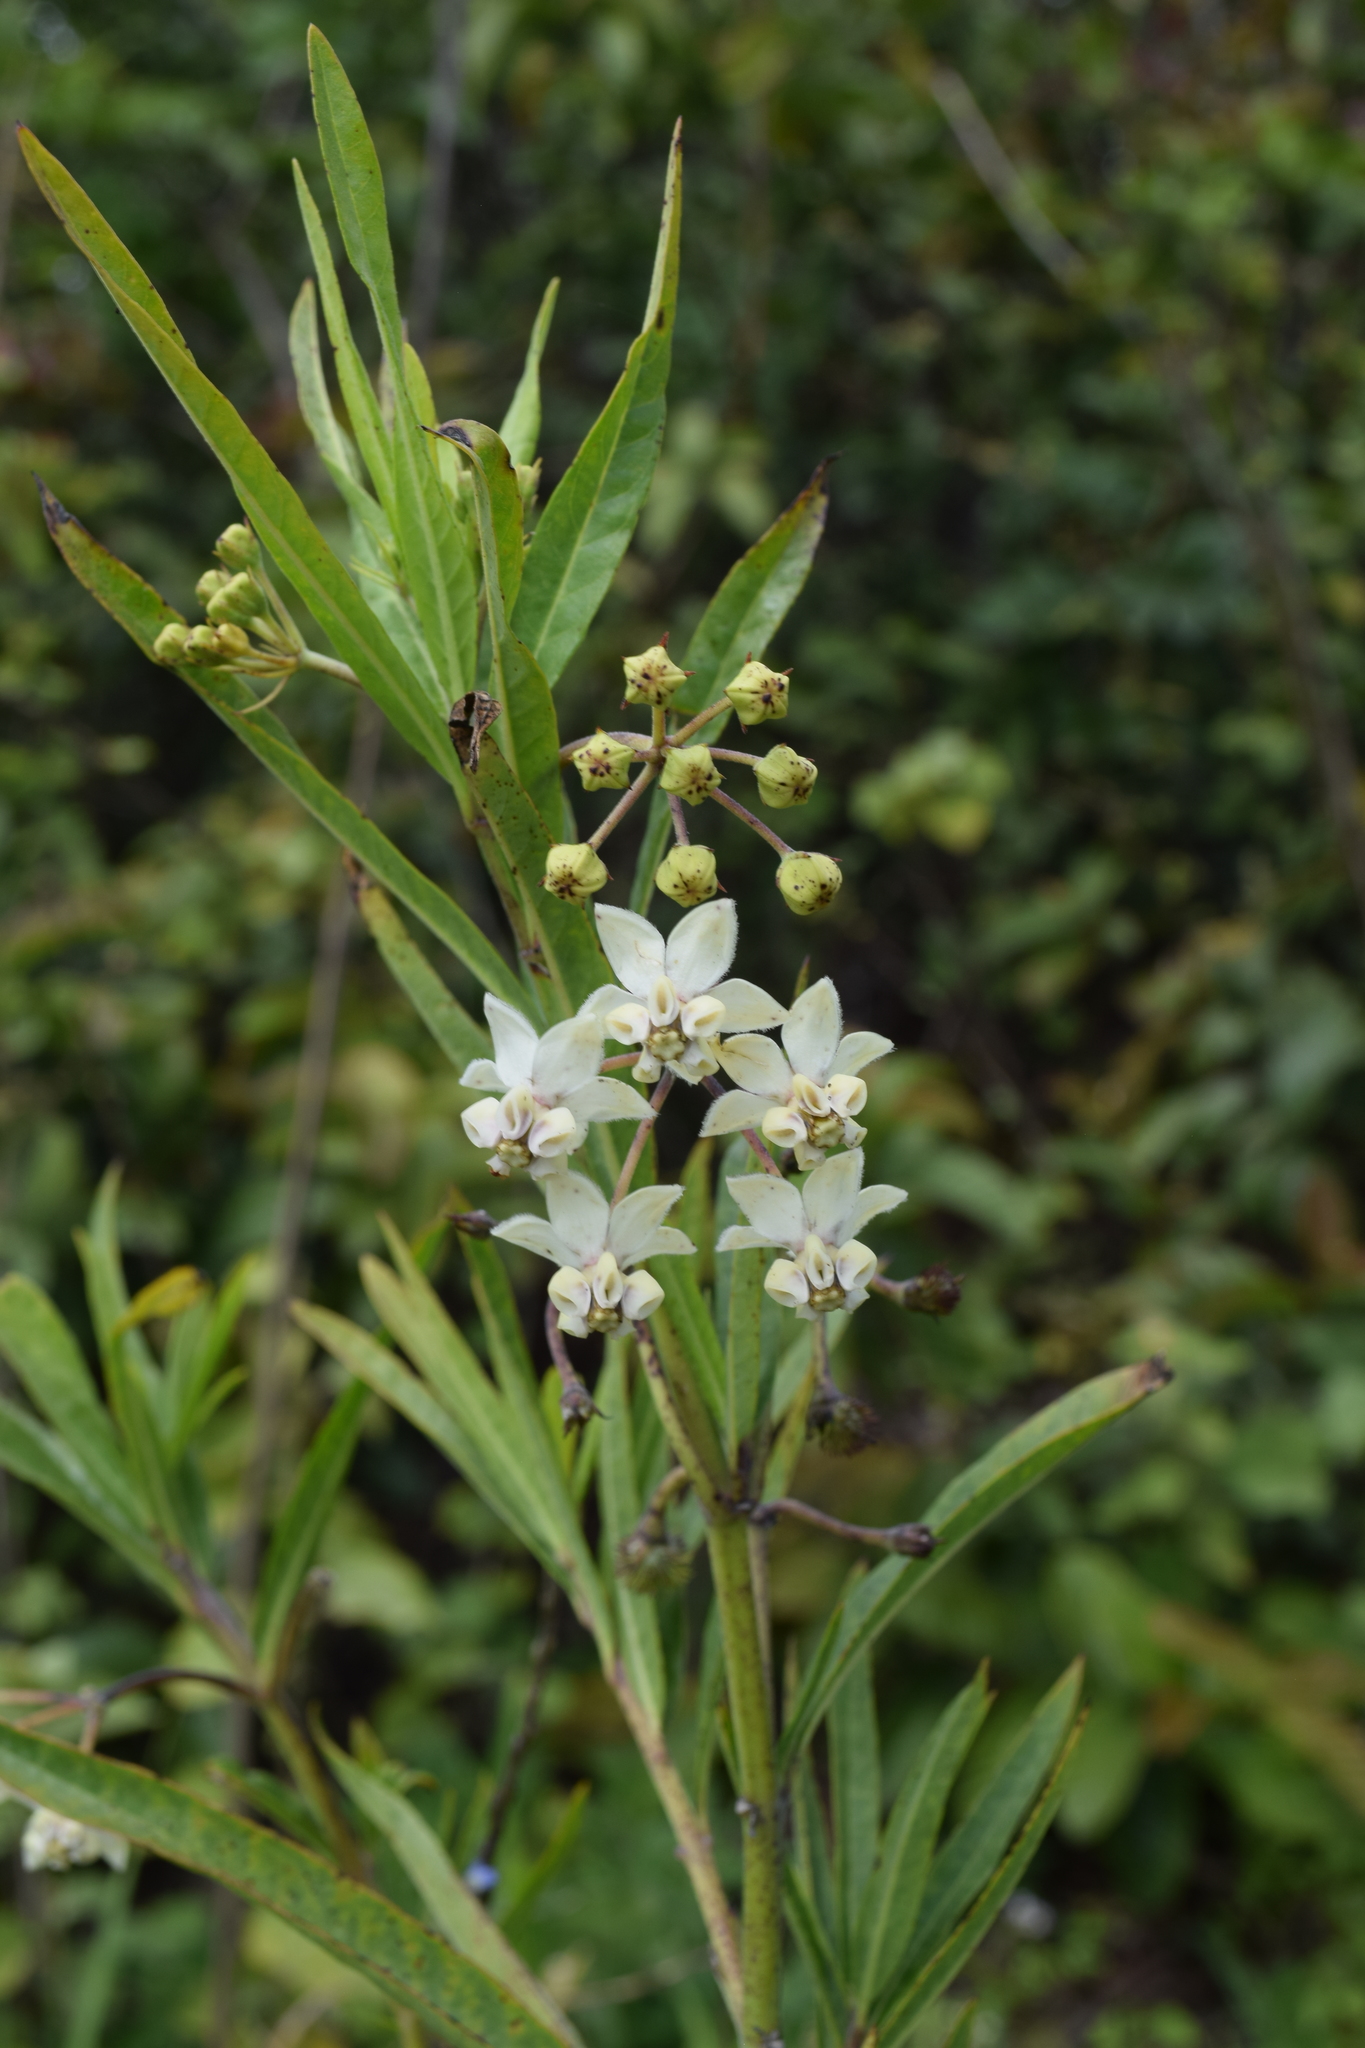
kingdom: Plantae
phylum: Tracheophyta
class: Magnoliopsida
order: Gentianales
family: Apocynaceae
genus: Gomphocarpus
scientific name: Gomphocarpus physocarpus
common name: Balloon cotton bush
